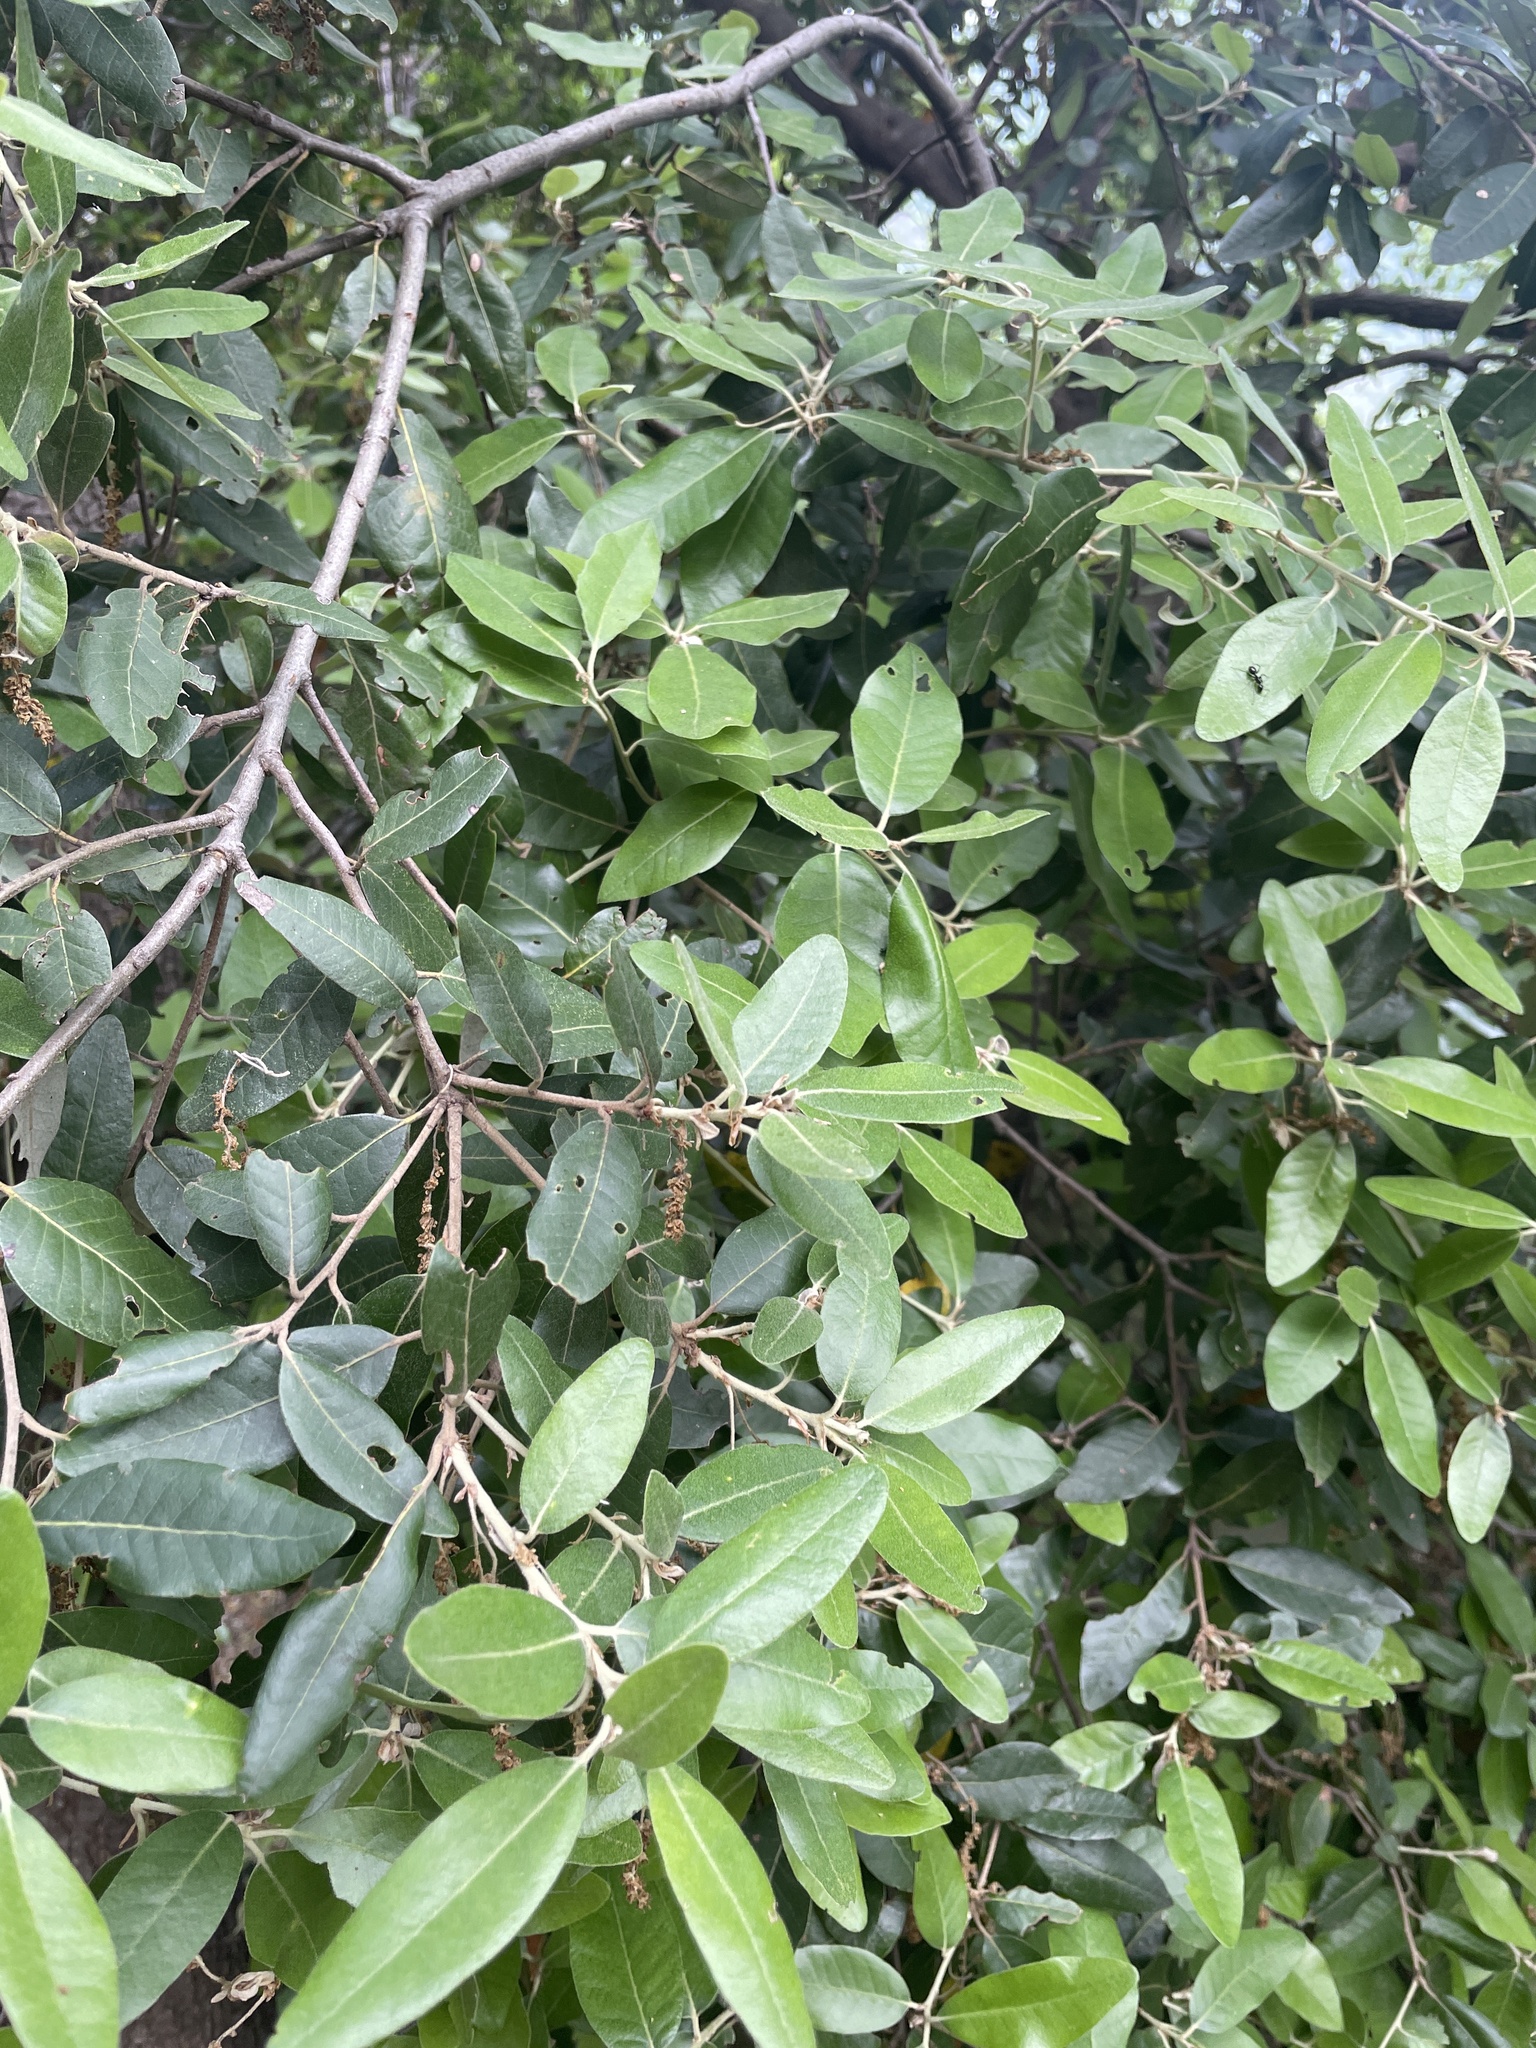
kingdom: Plantae
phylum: Tracheophyta
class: Magnoliopsida
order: Fagales
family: Fagaceae
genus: Quercus
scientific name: Quercus ilex
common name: Evergreen oak
